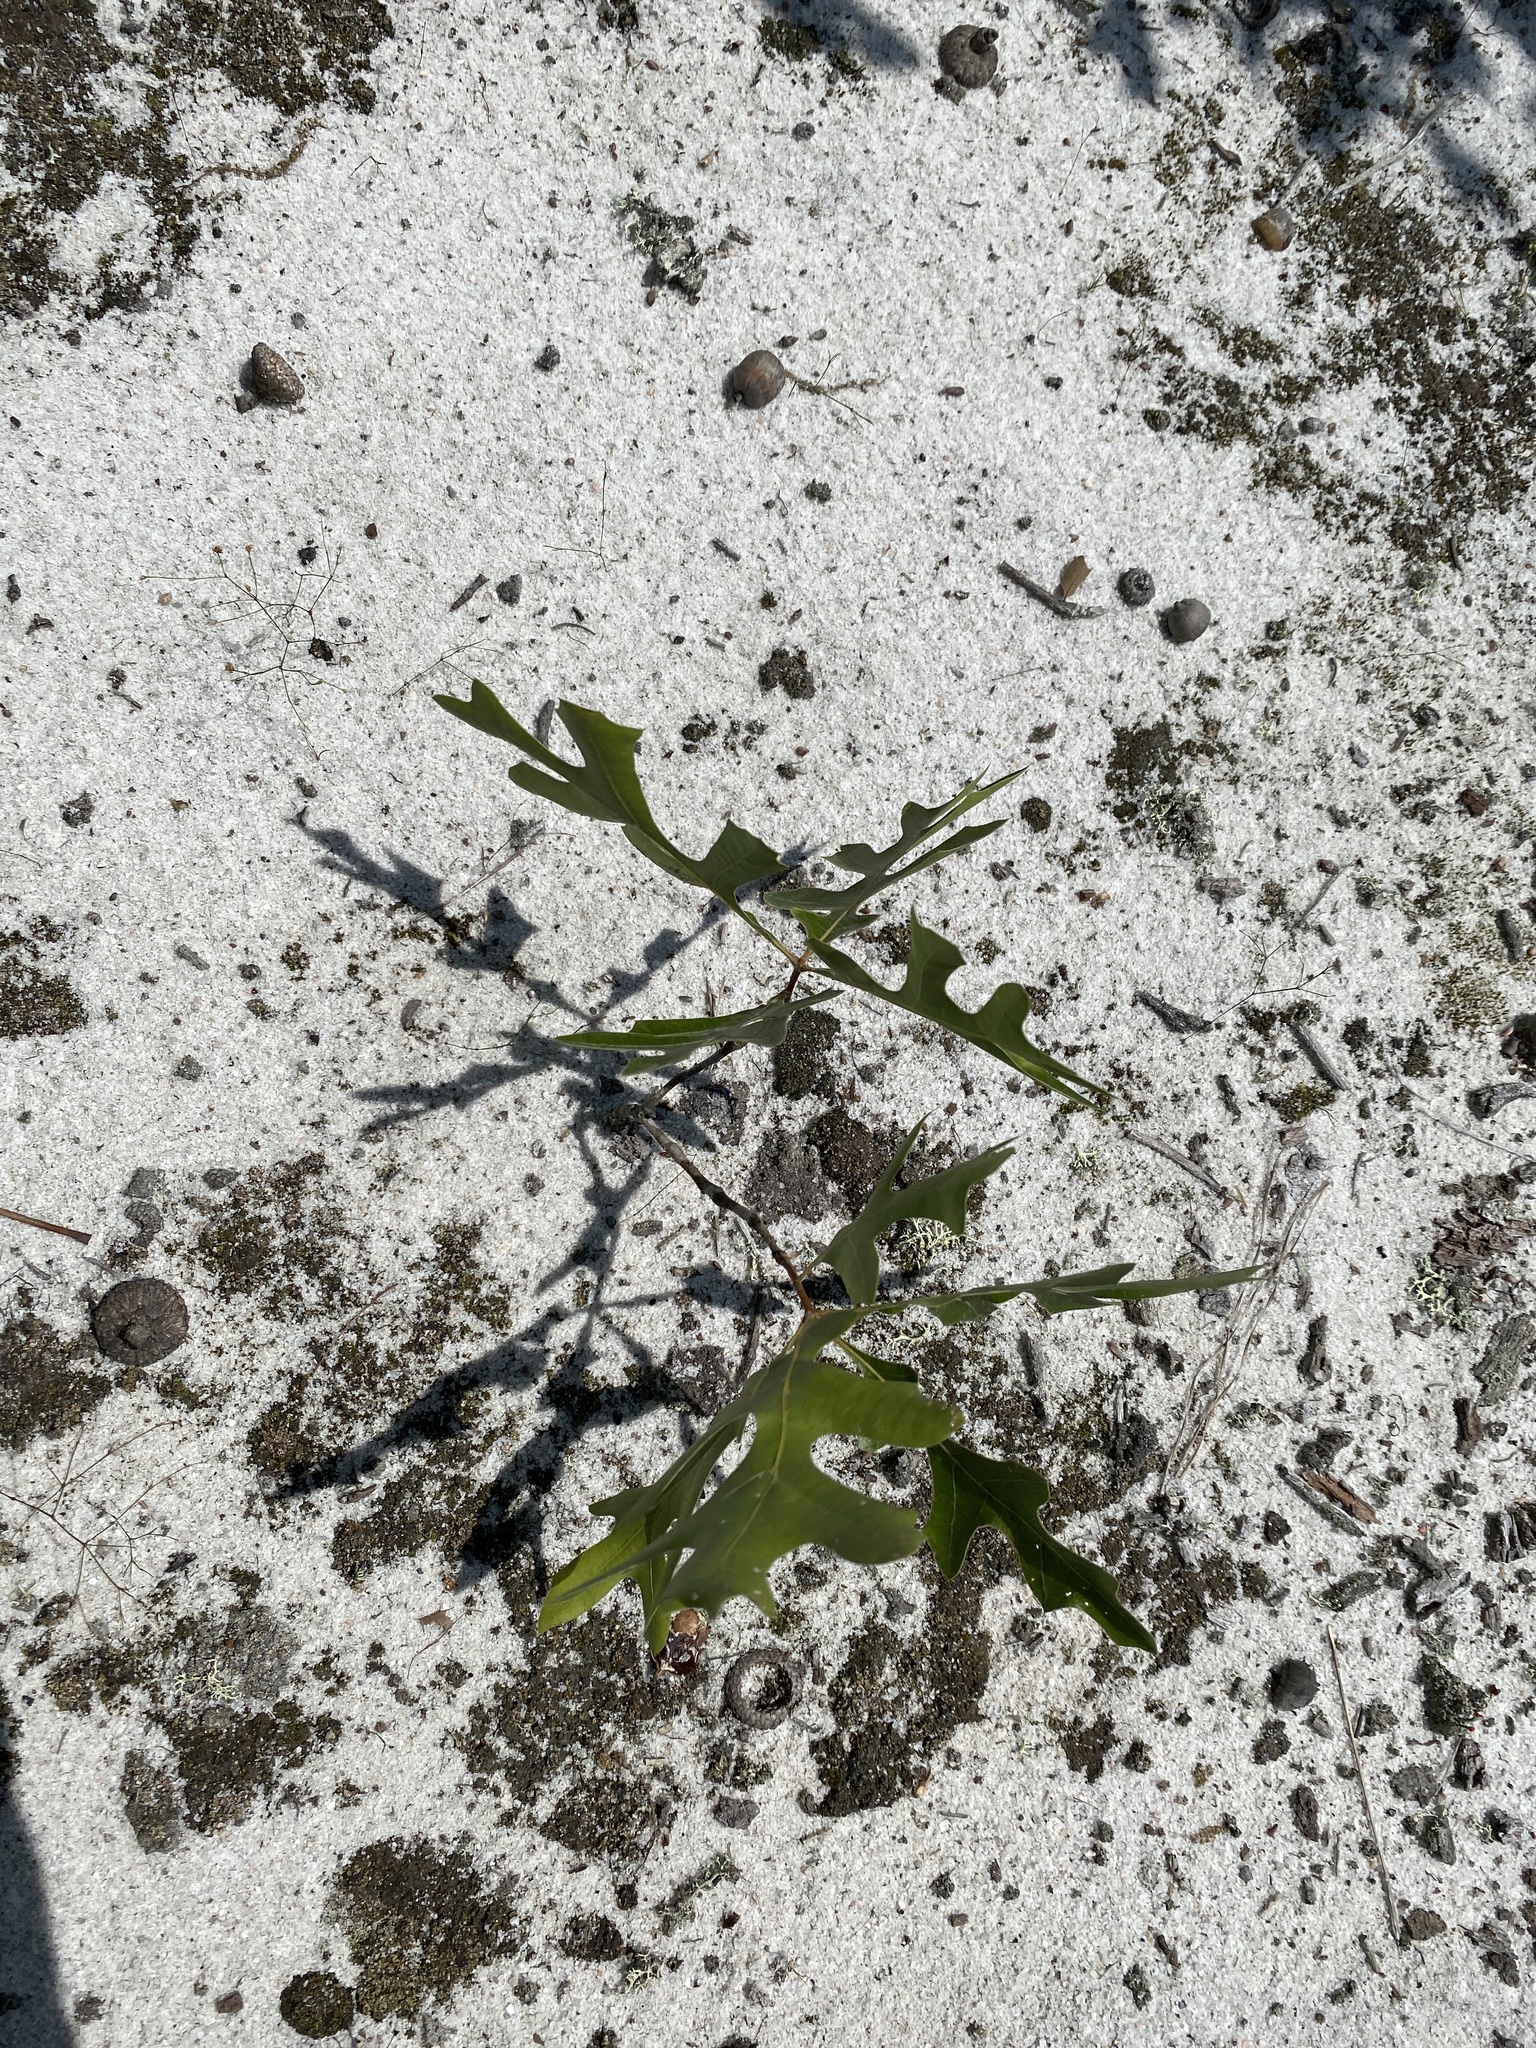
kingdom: Plantae
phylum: Tracheophyta
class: Magnoliopsida
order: Fagales
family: Fagaceae
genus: Quercus
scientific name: Quercus laevis
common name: Turkey oak
